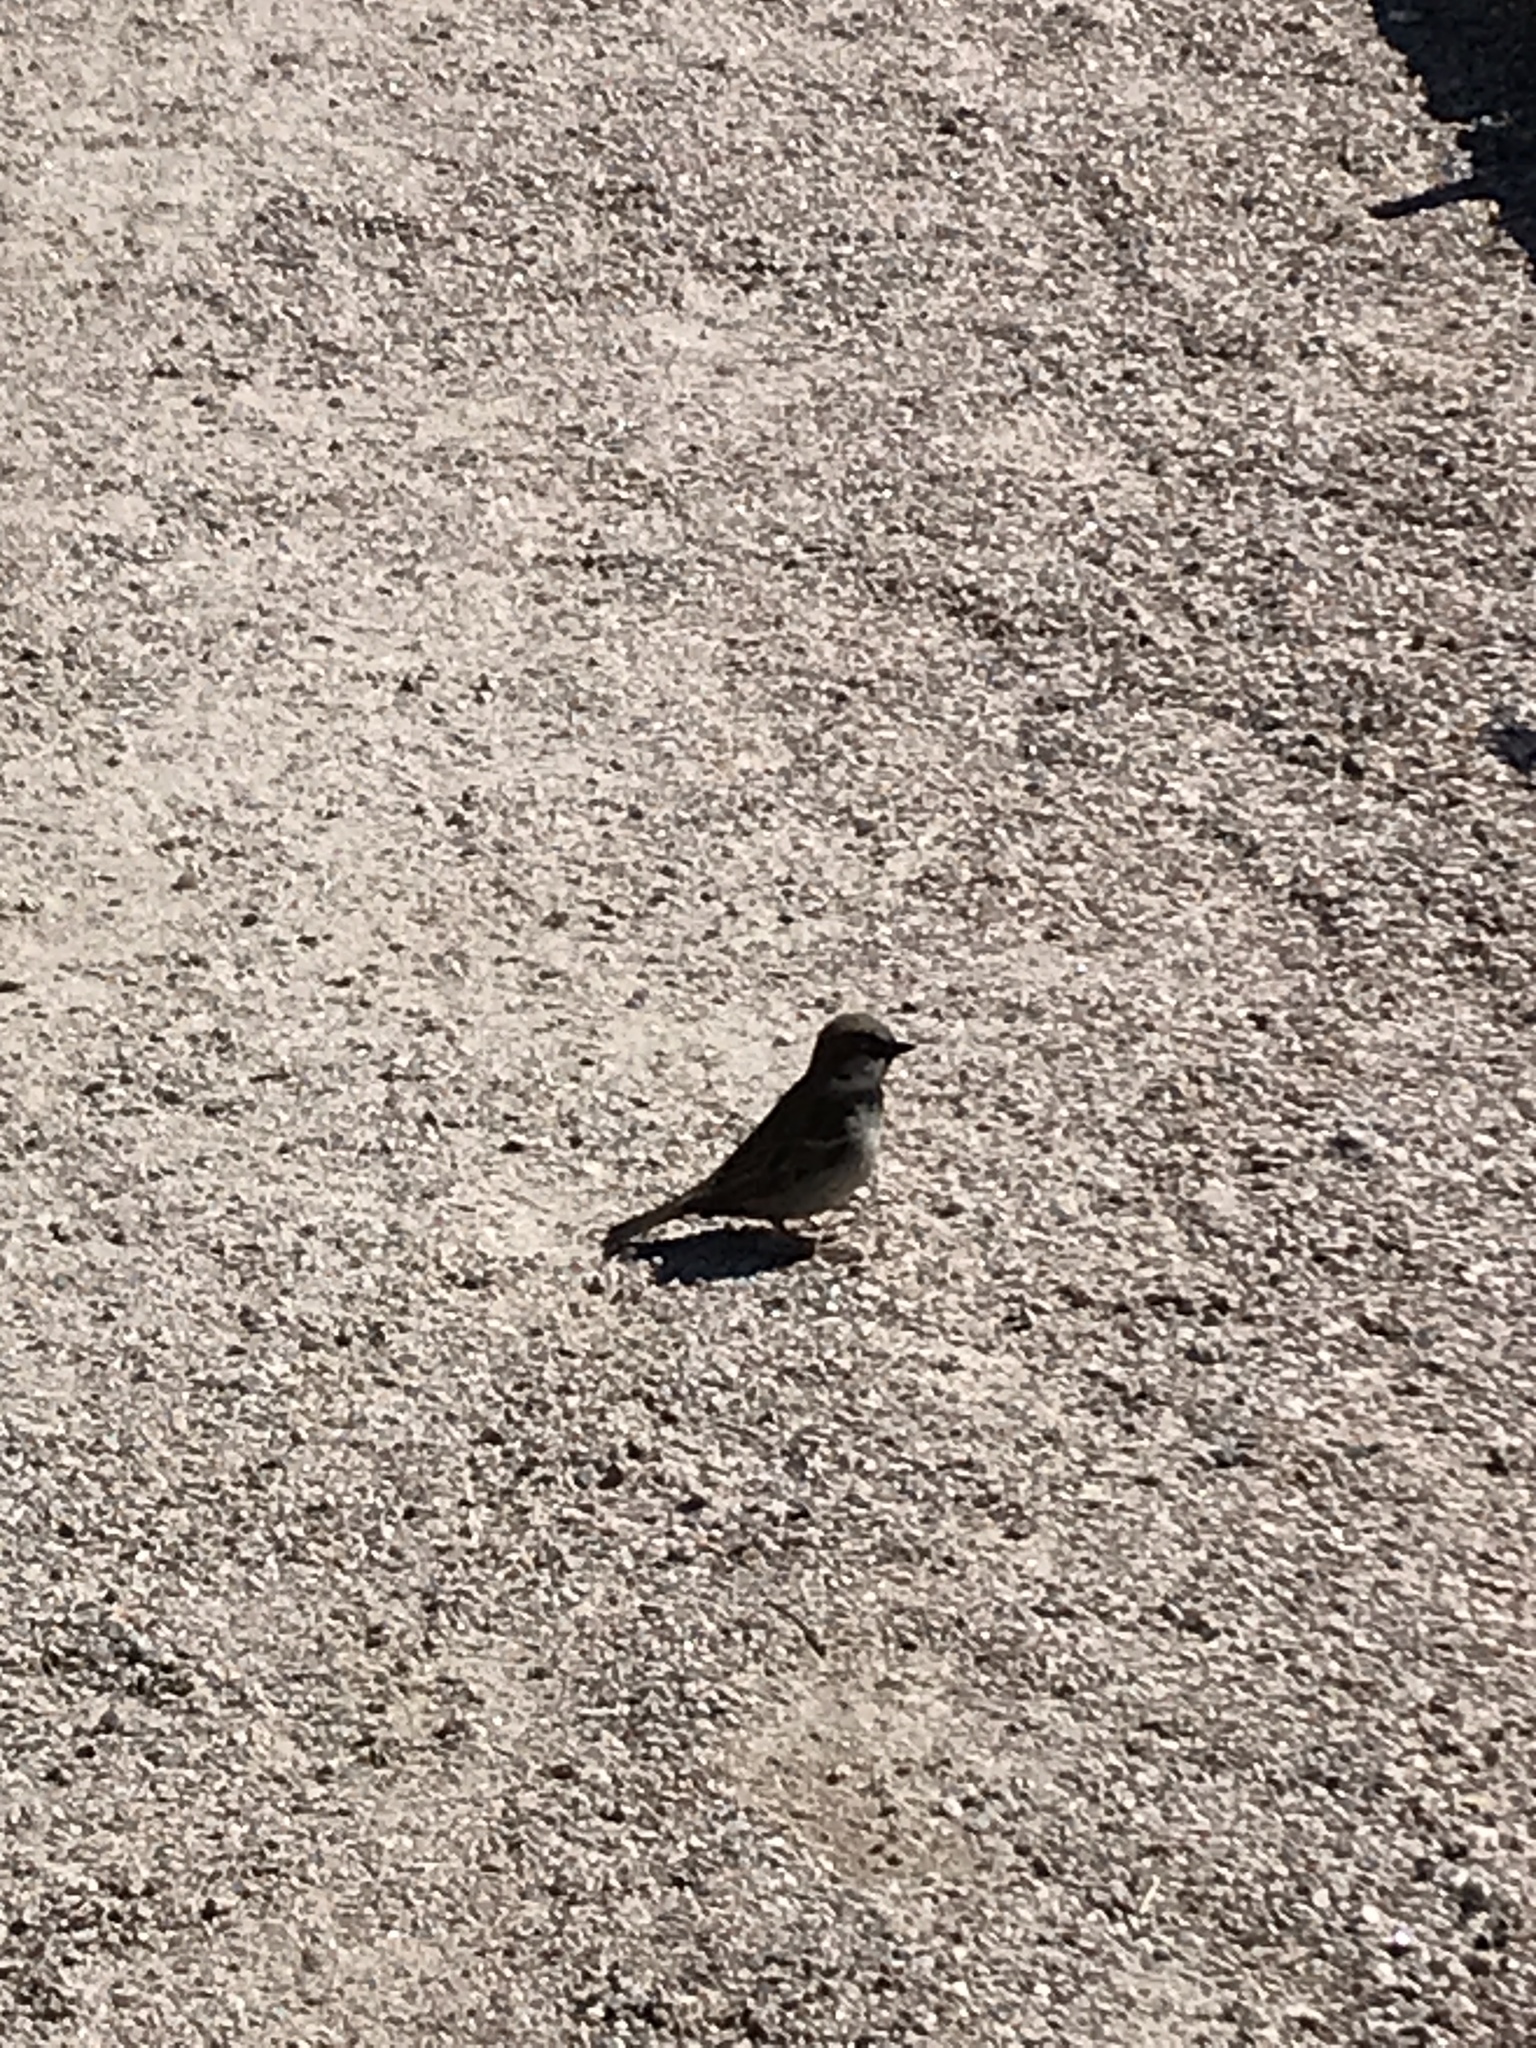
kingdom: Animalia
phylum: Chordata
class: Aves
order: Passeriformes
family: Passeridae
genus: Passer
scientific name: Passer domesticus
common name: House sparrow
